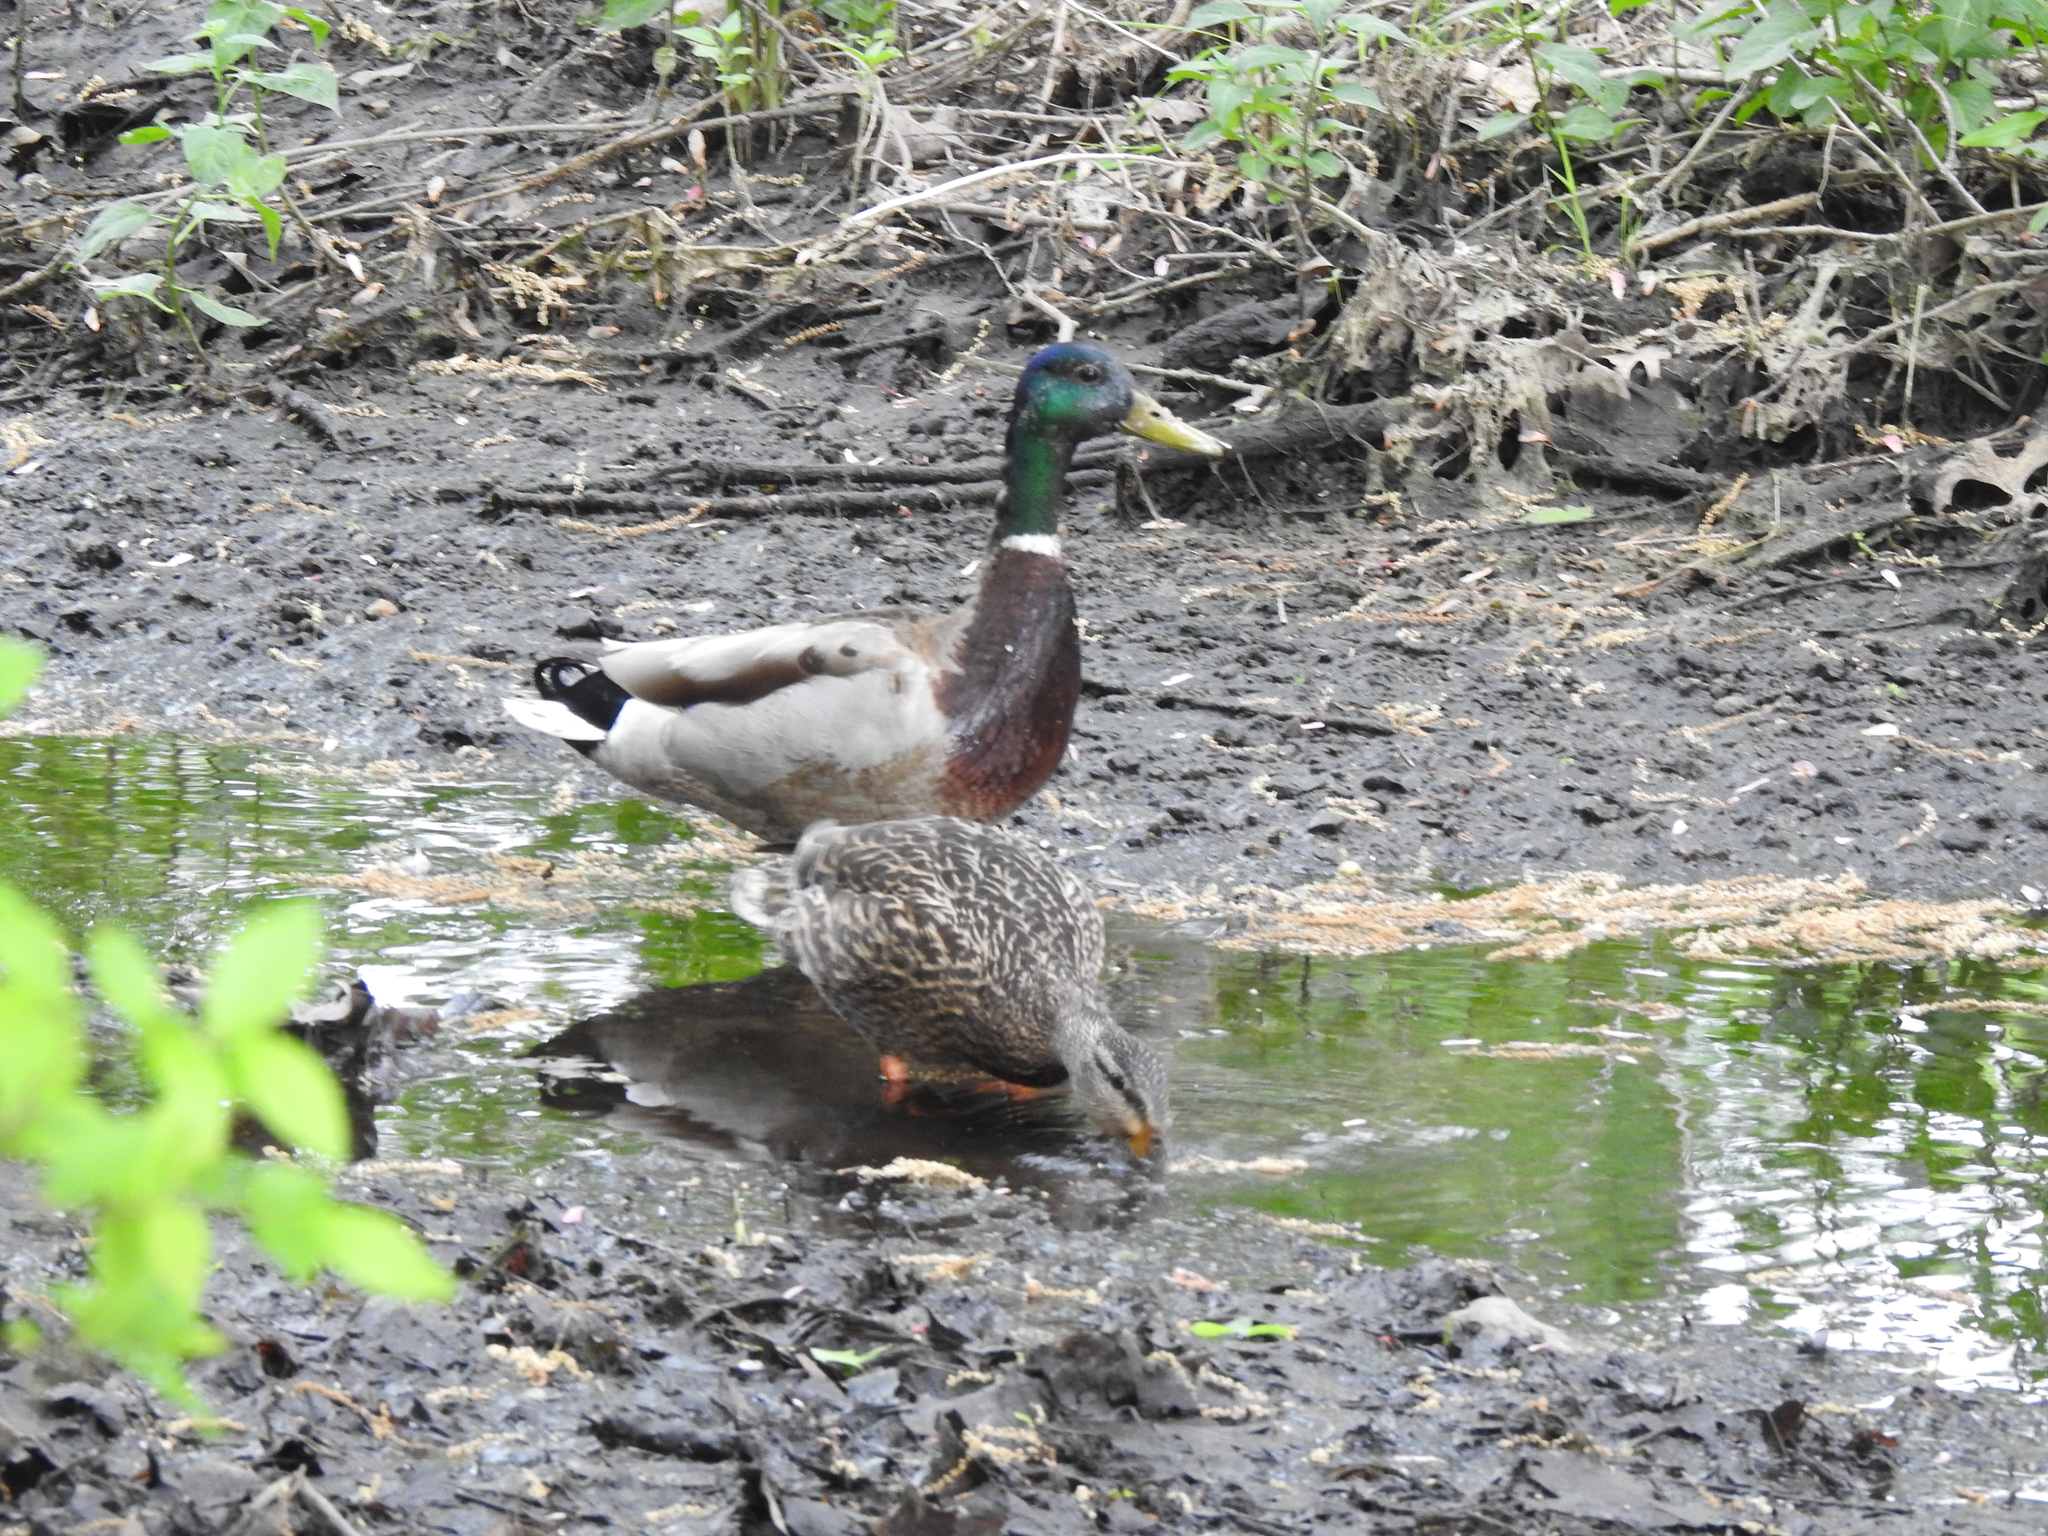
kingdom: Animalia
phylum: Chordata
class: Aves
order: Anseriformes
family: Anatidae
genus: Anas
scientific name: Anas platyrhynchos
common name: Mallard
